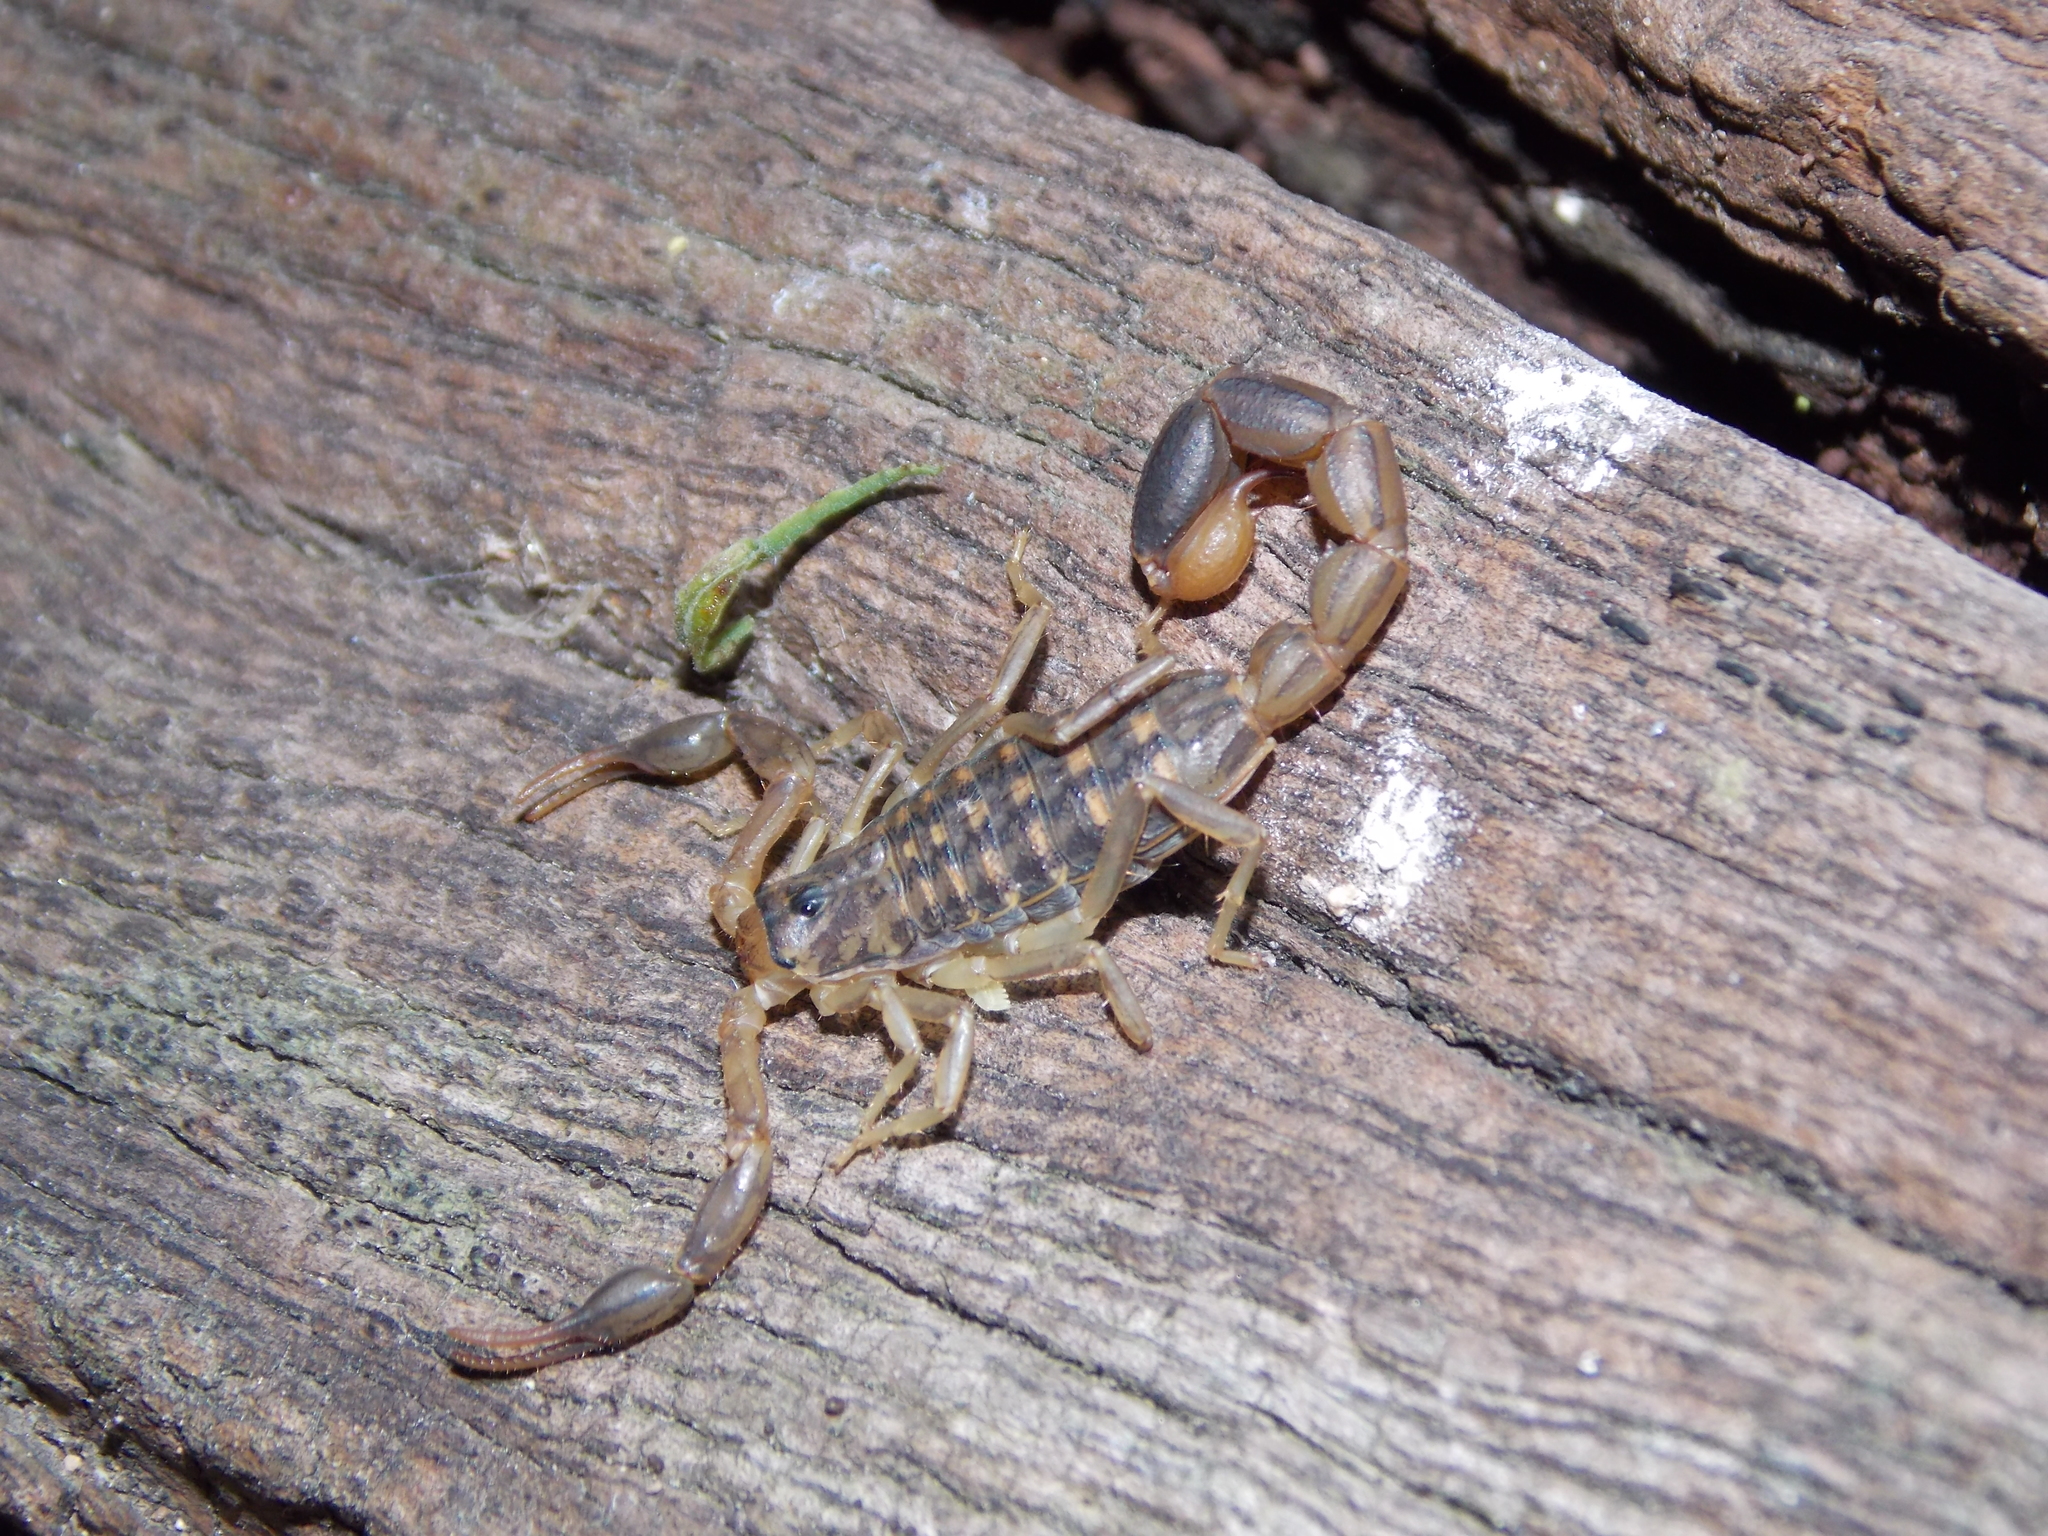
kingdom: Animalia
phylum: Arthropoda
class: Arachnida
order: Scorpiones
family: Buthidae
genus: Uroplectes
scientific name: Uroplectes lineatus
